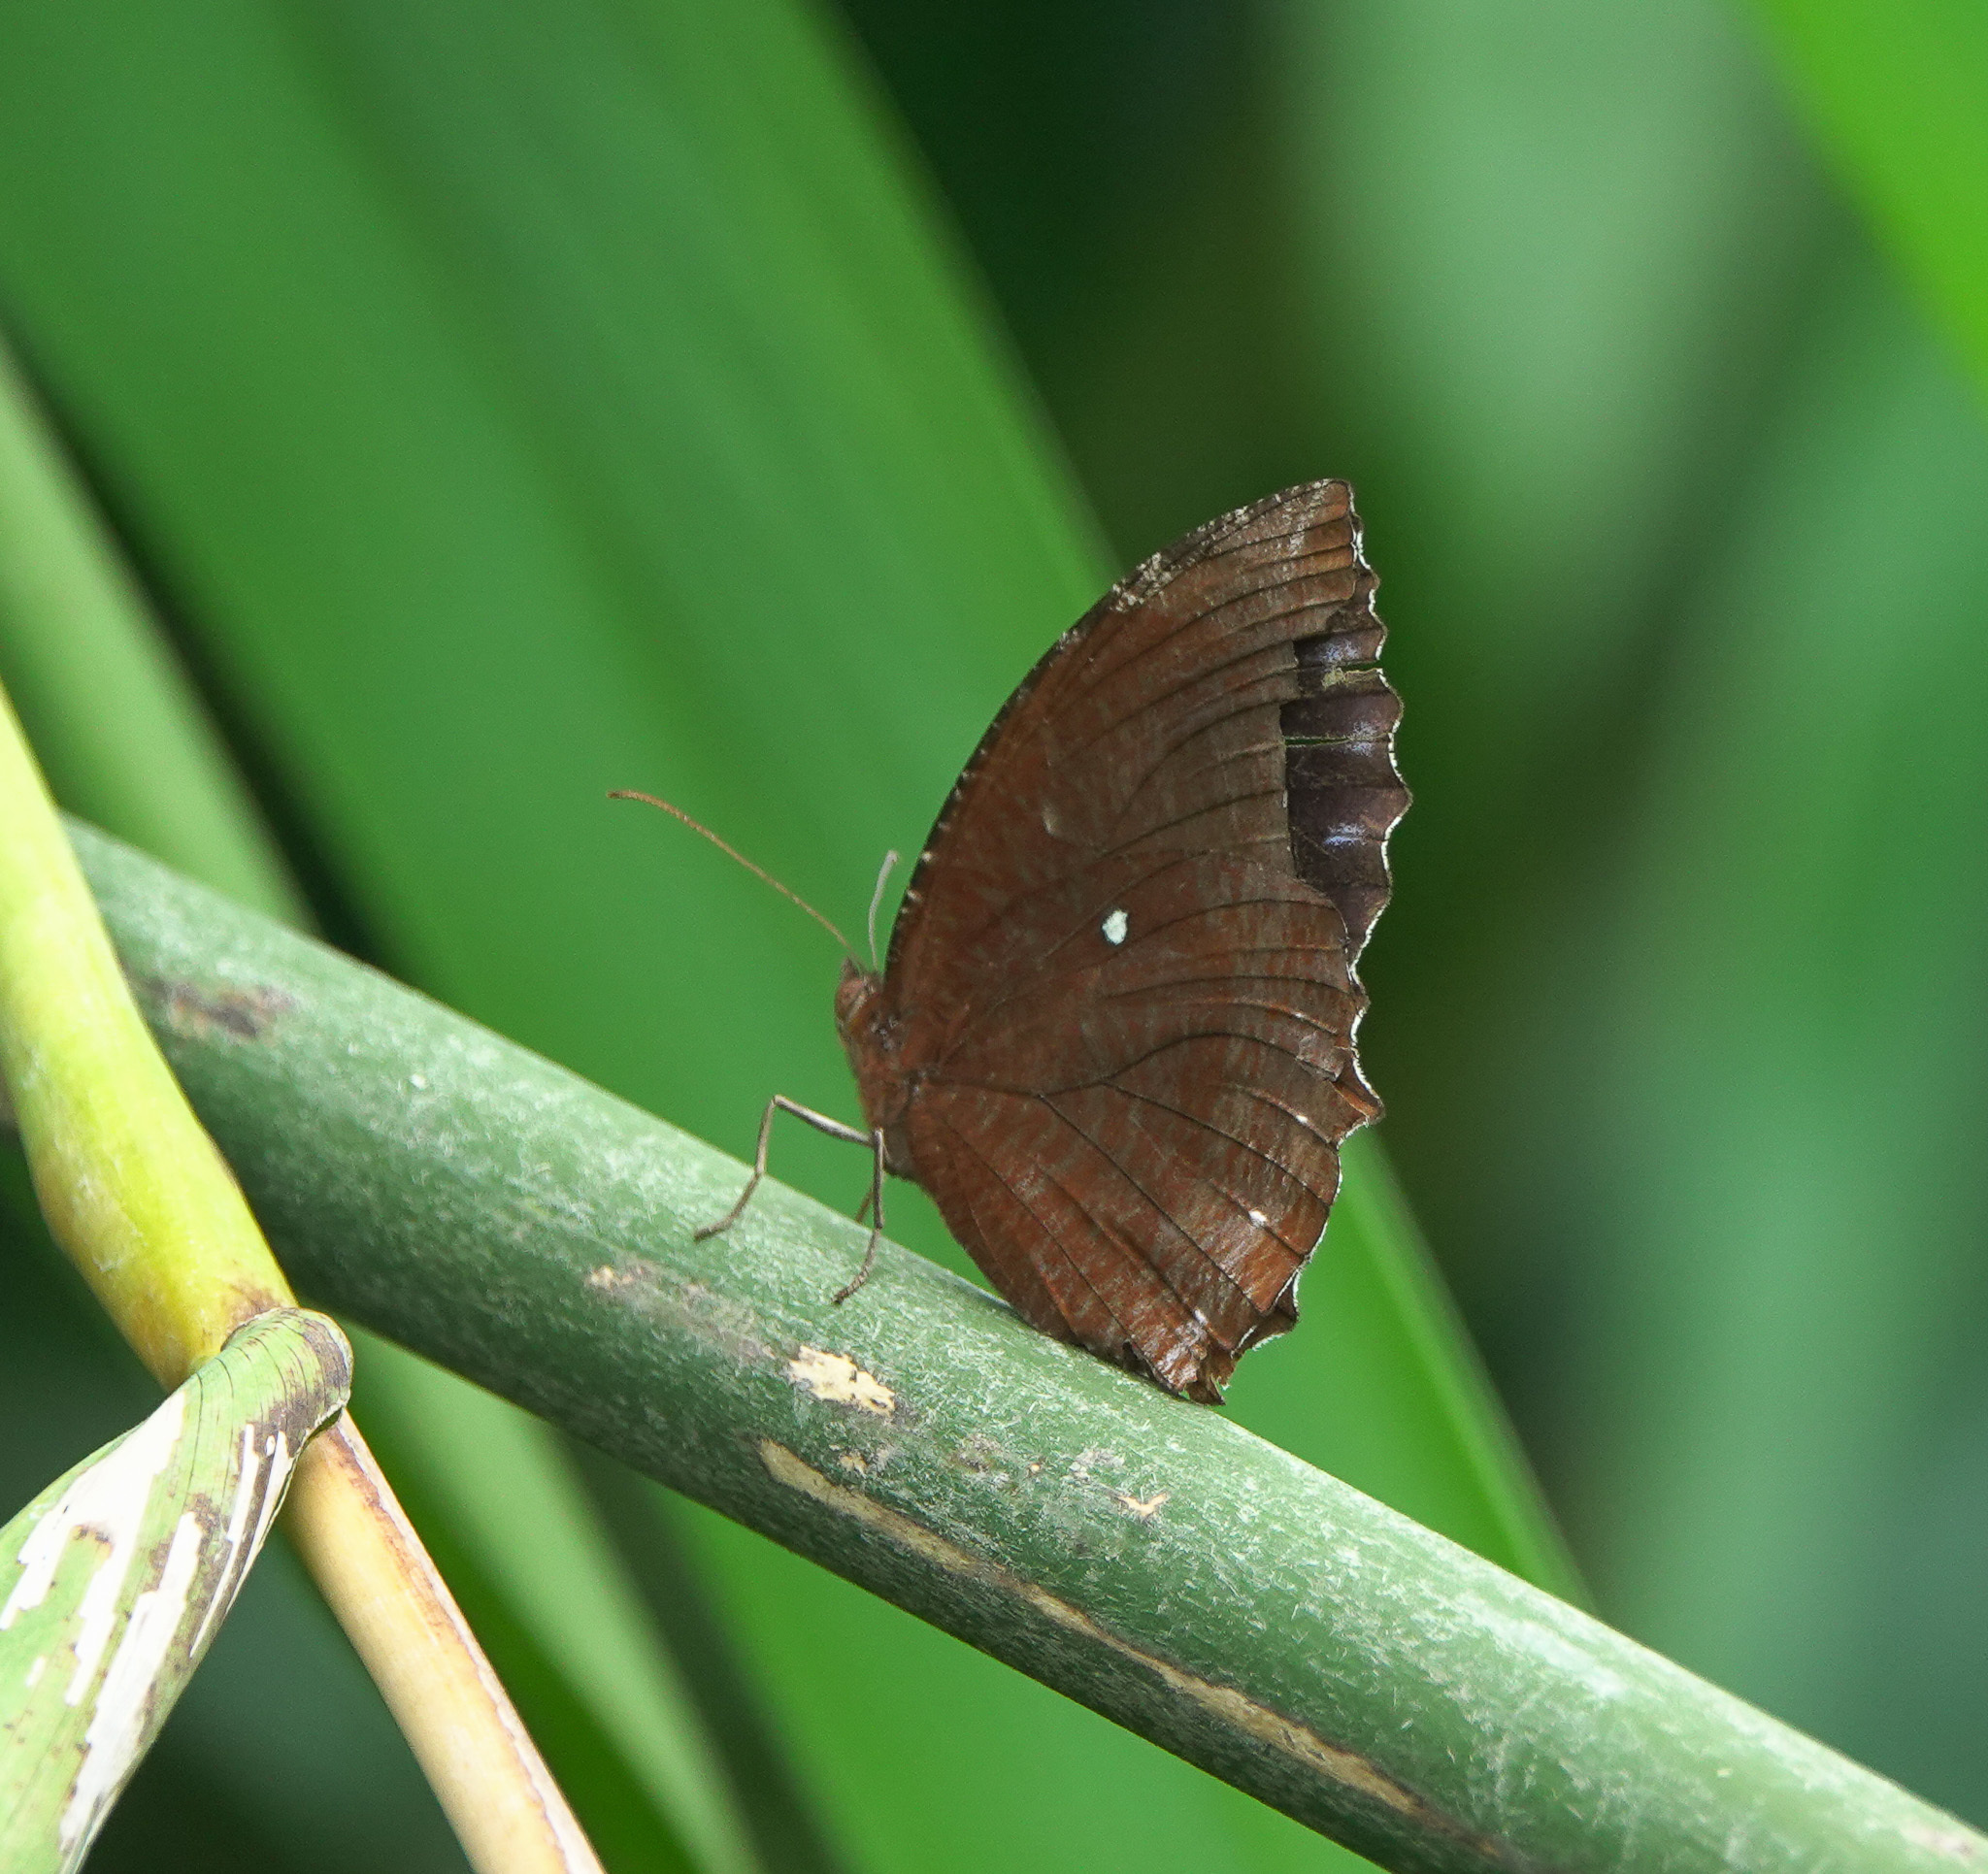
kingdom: Animalia
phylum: Arthropoda
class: Insecta
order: Lepidoptera
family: Nymphalidae
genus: Elymnias
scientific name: Elymnias hypermnestra
